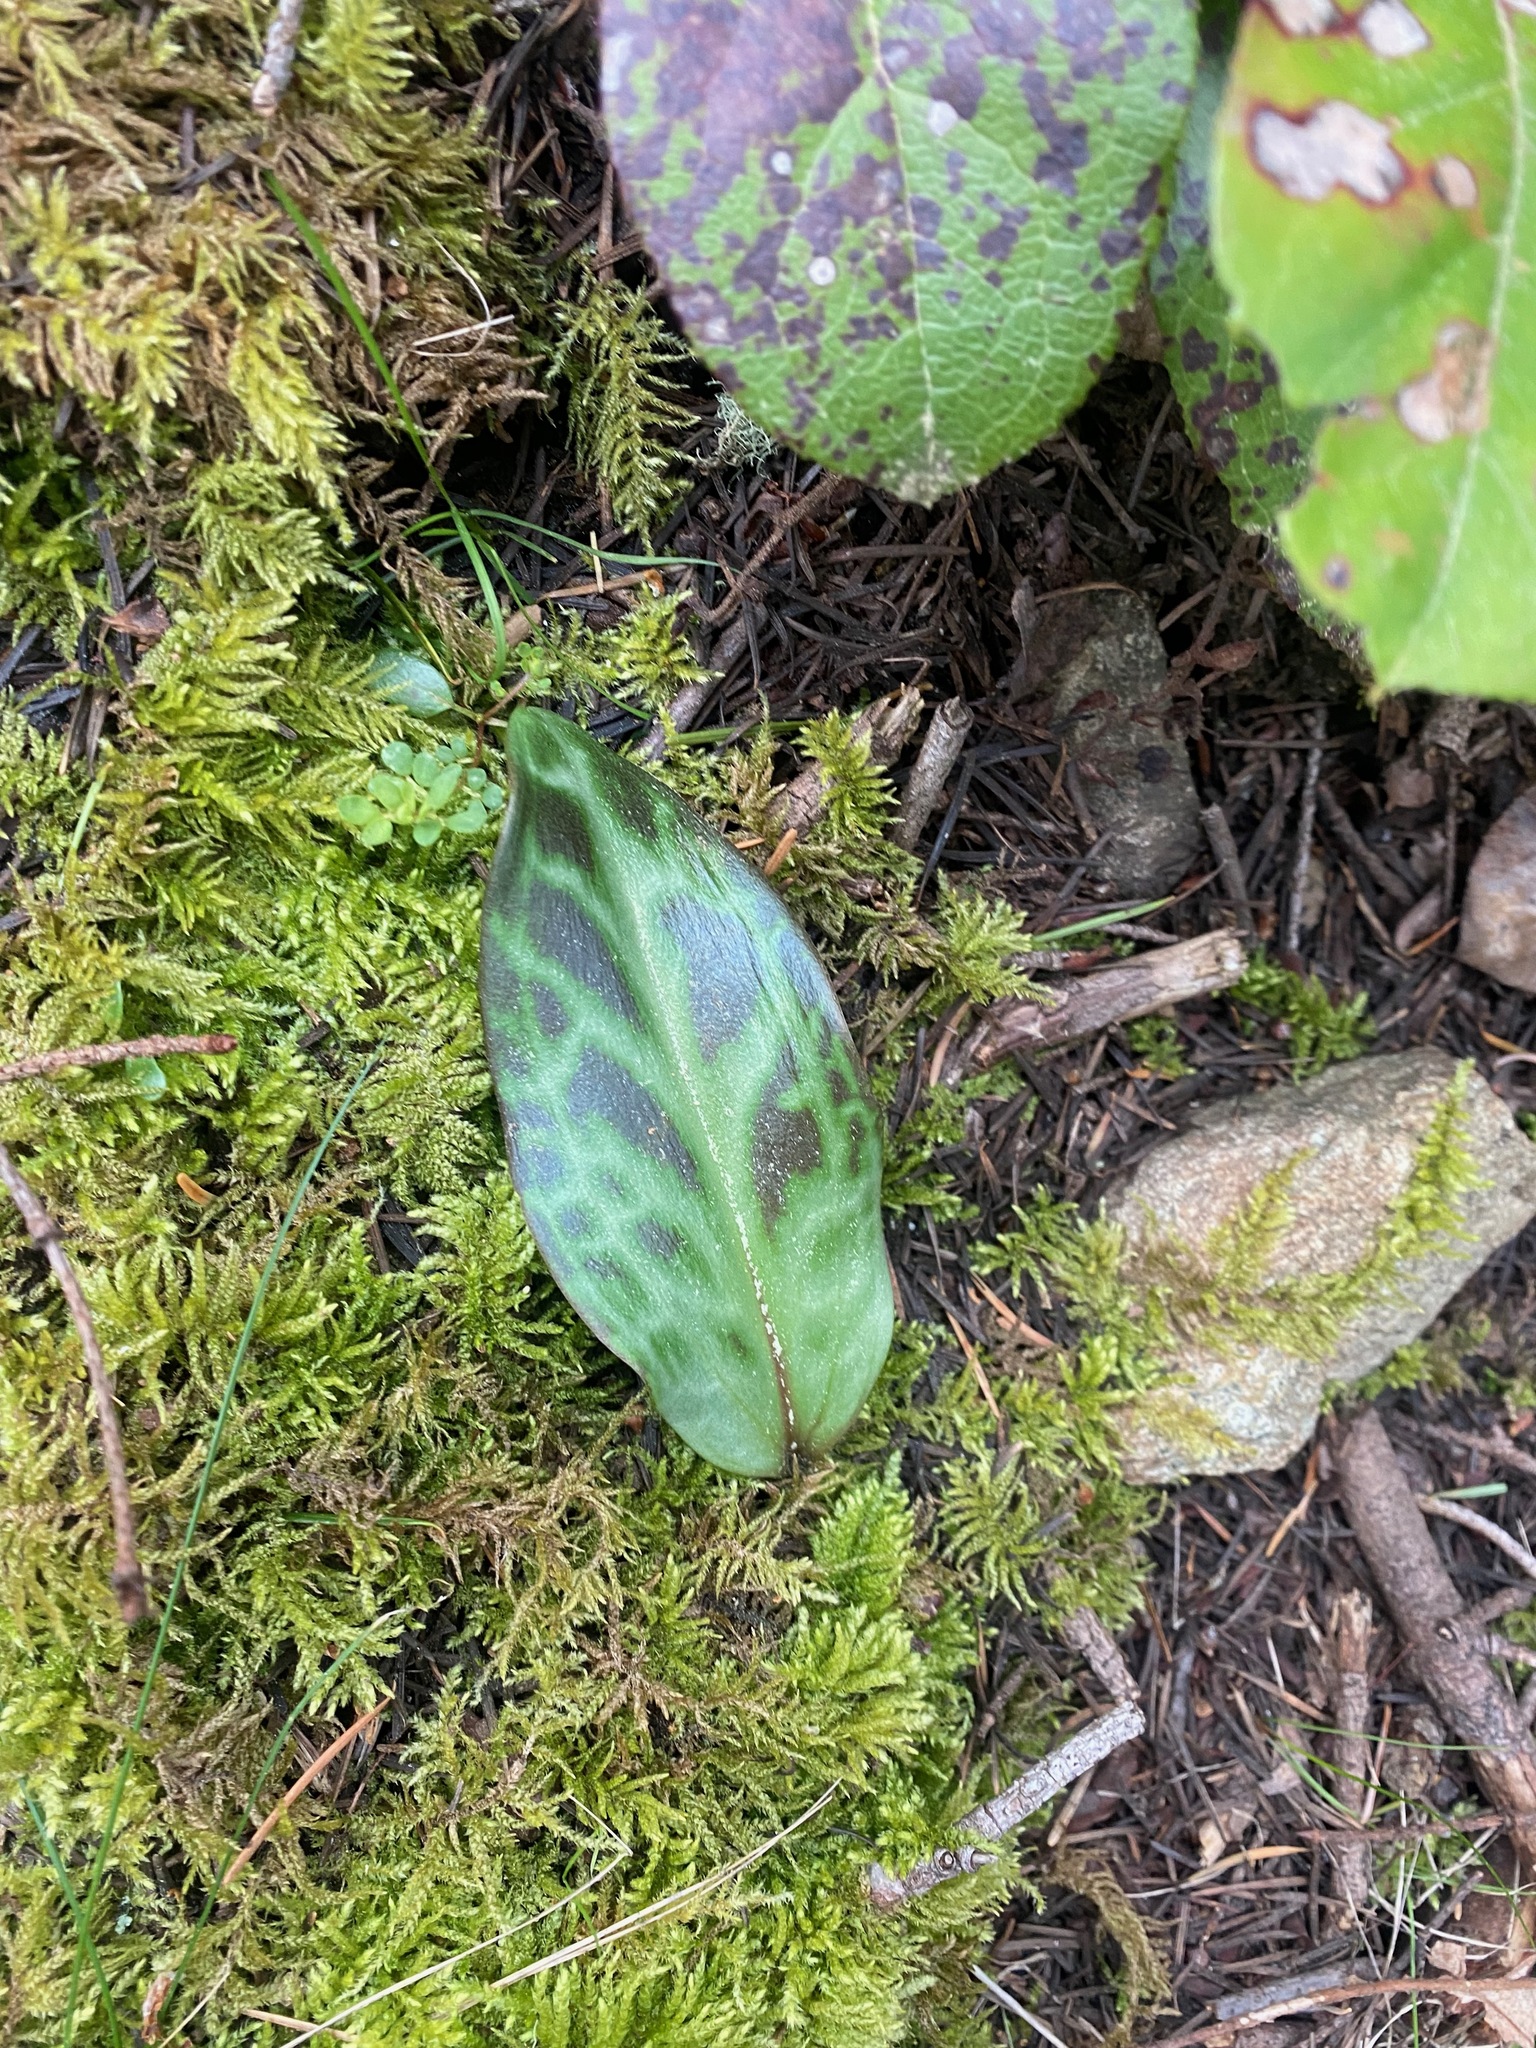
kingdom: Plantae
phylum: Tracheophyta
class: Liliopsida
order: Liliales
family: Liliaceae
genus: Erythronium
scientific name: Erythronium oregonum
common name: Giant adder's-tongue
